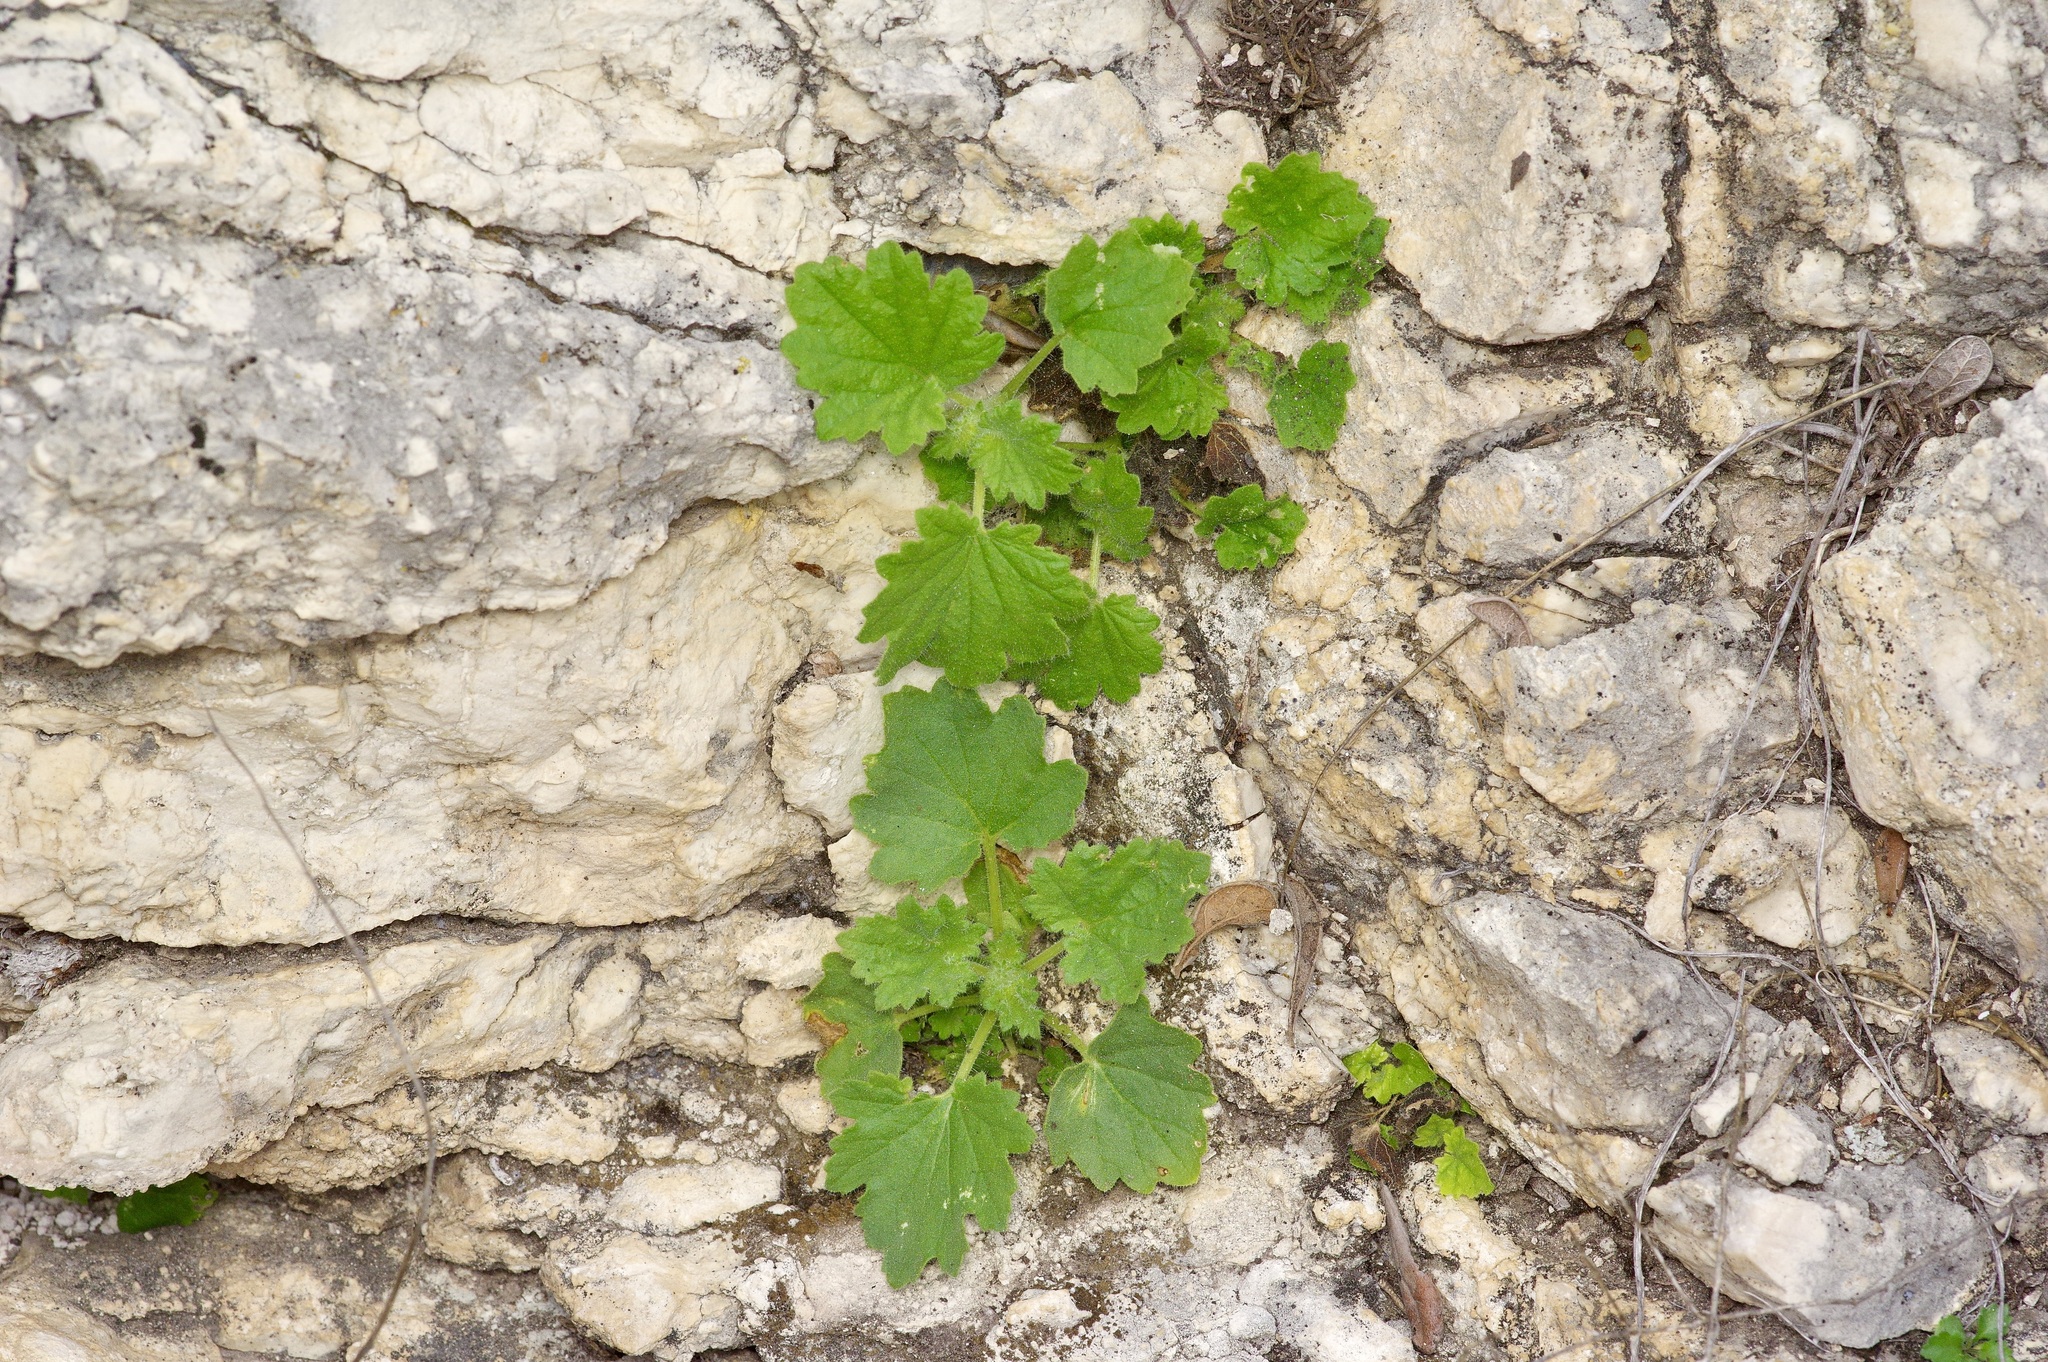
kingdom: Plantae
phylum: Tracheophyta
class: Magnoliopsida
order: Cornales
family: Loasaceae
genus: Eucnide
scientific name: Eucnide bartonioides
